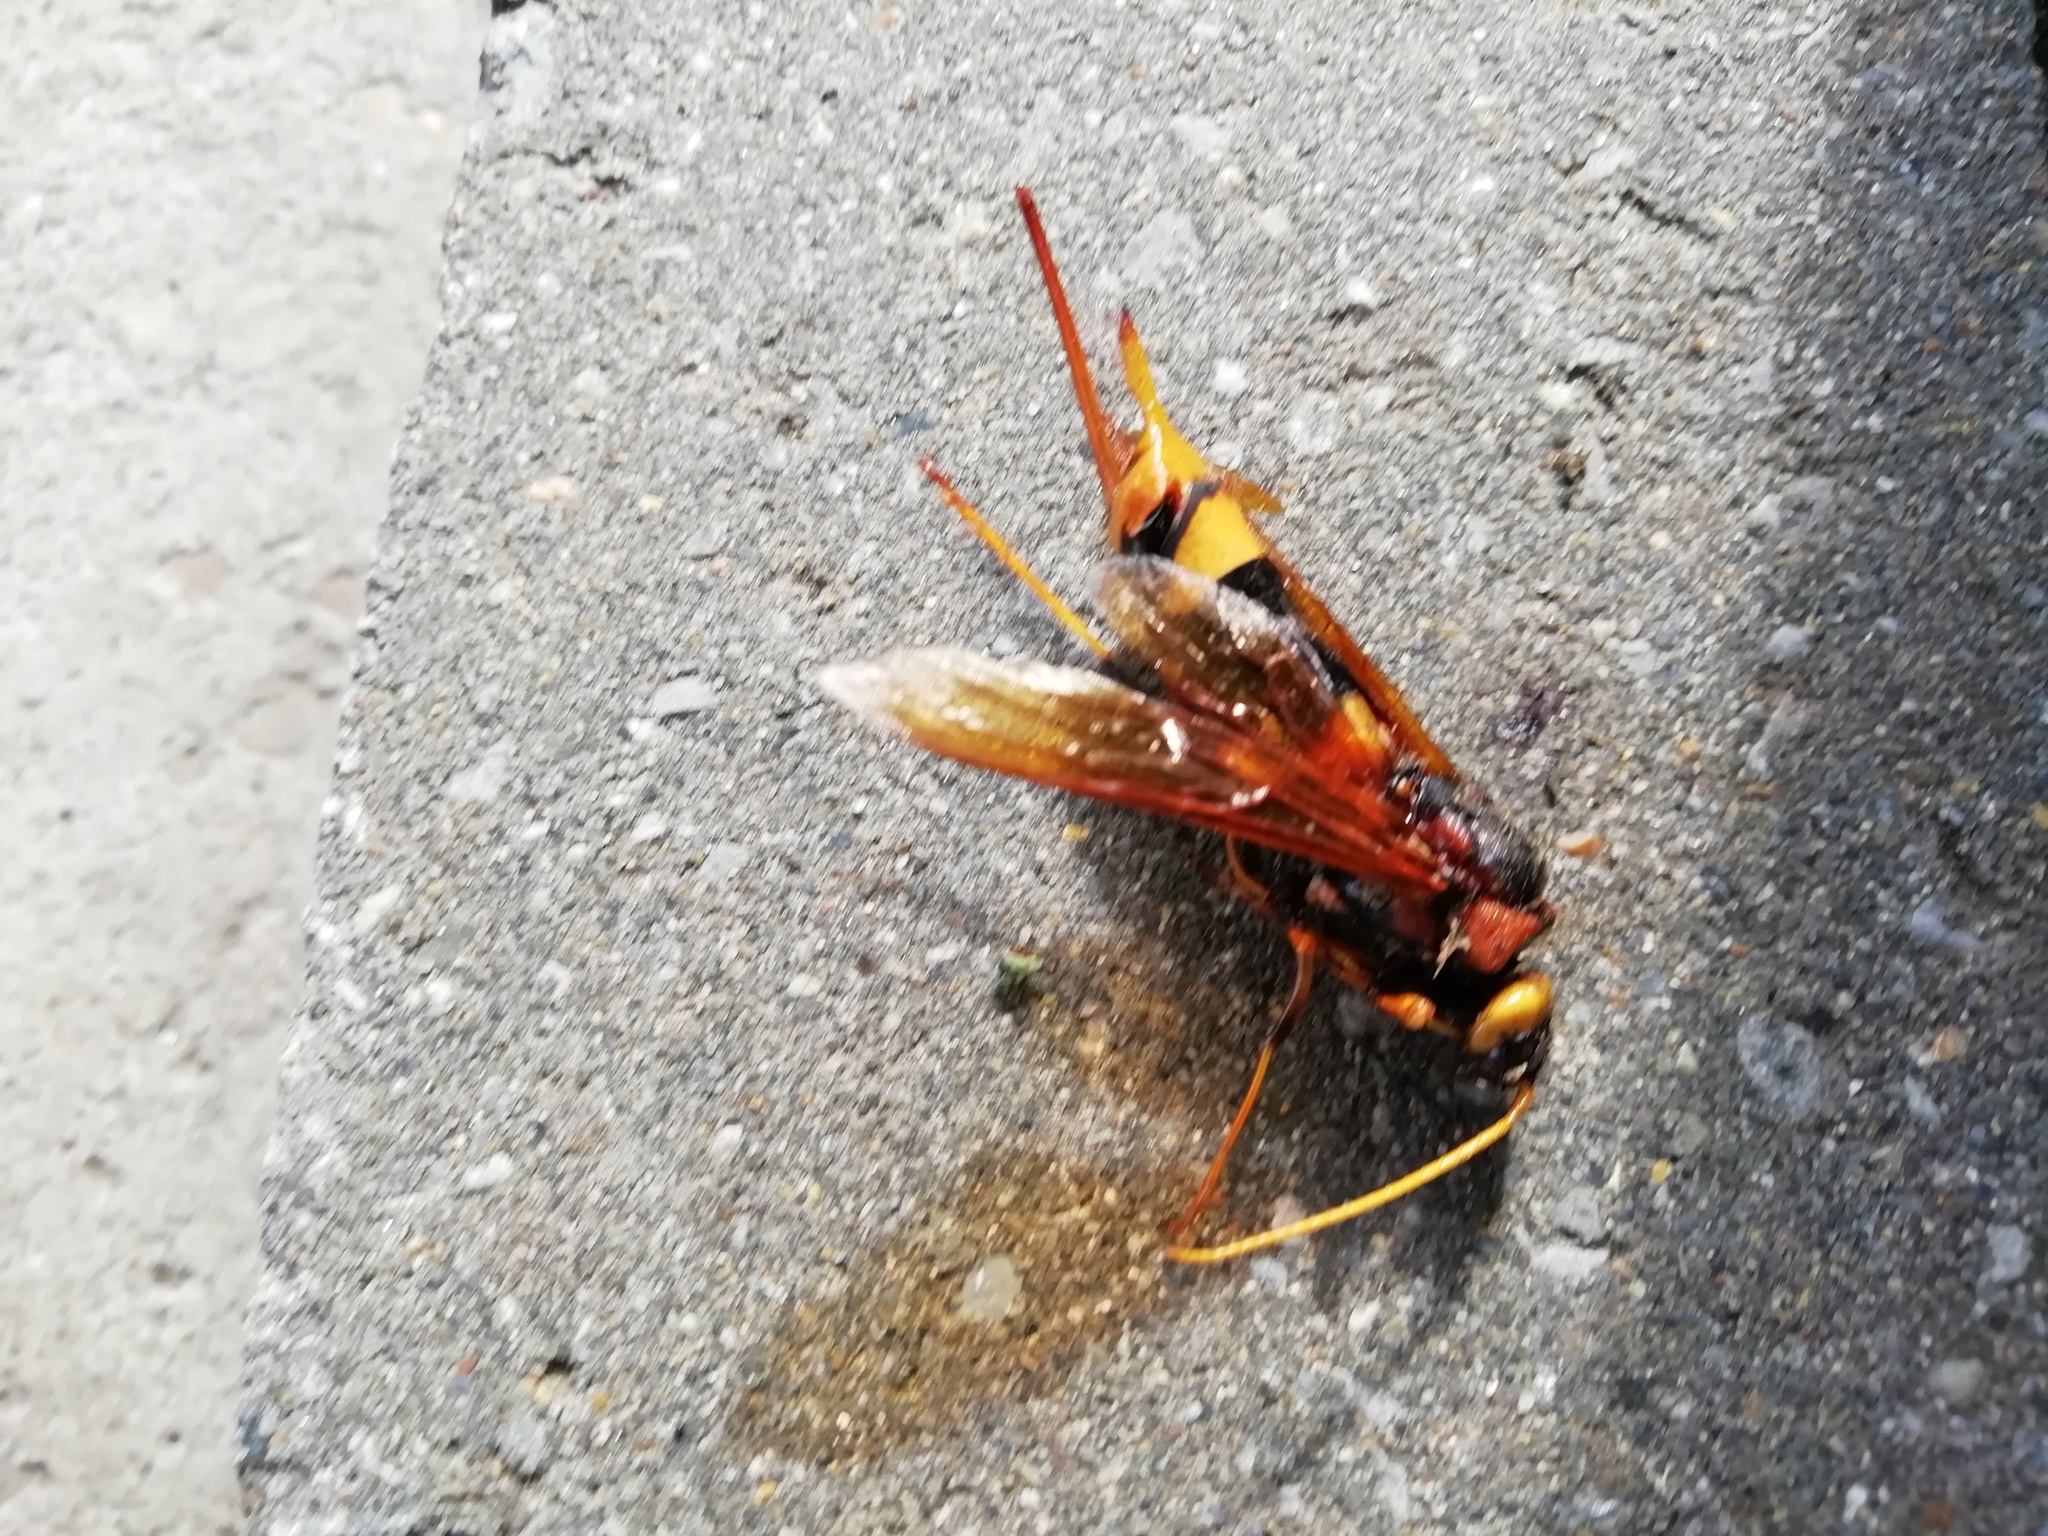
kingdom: Animalia
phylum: Arthropoda
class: Insecta
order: Hymenoptera
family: Siricidae
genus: Urocerus
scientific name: Urocerus sah
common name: Horntail wasp
